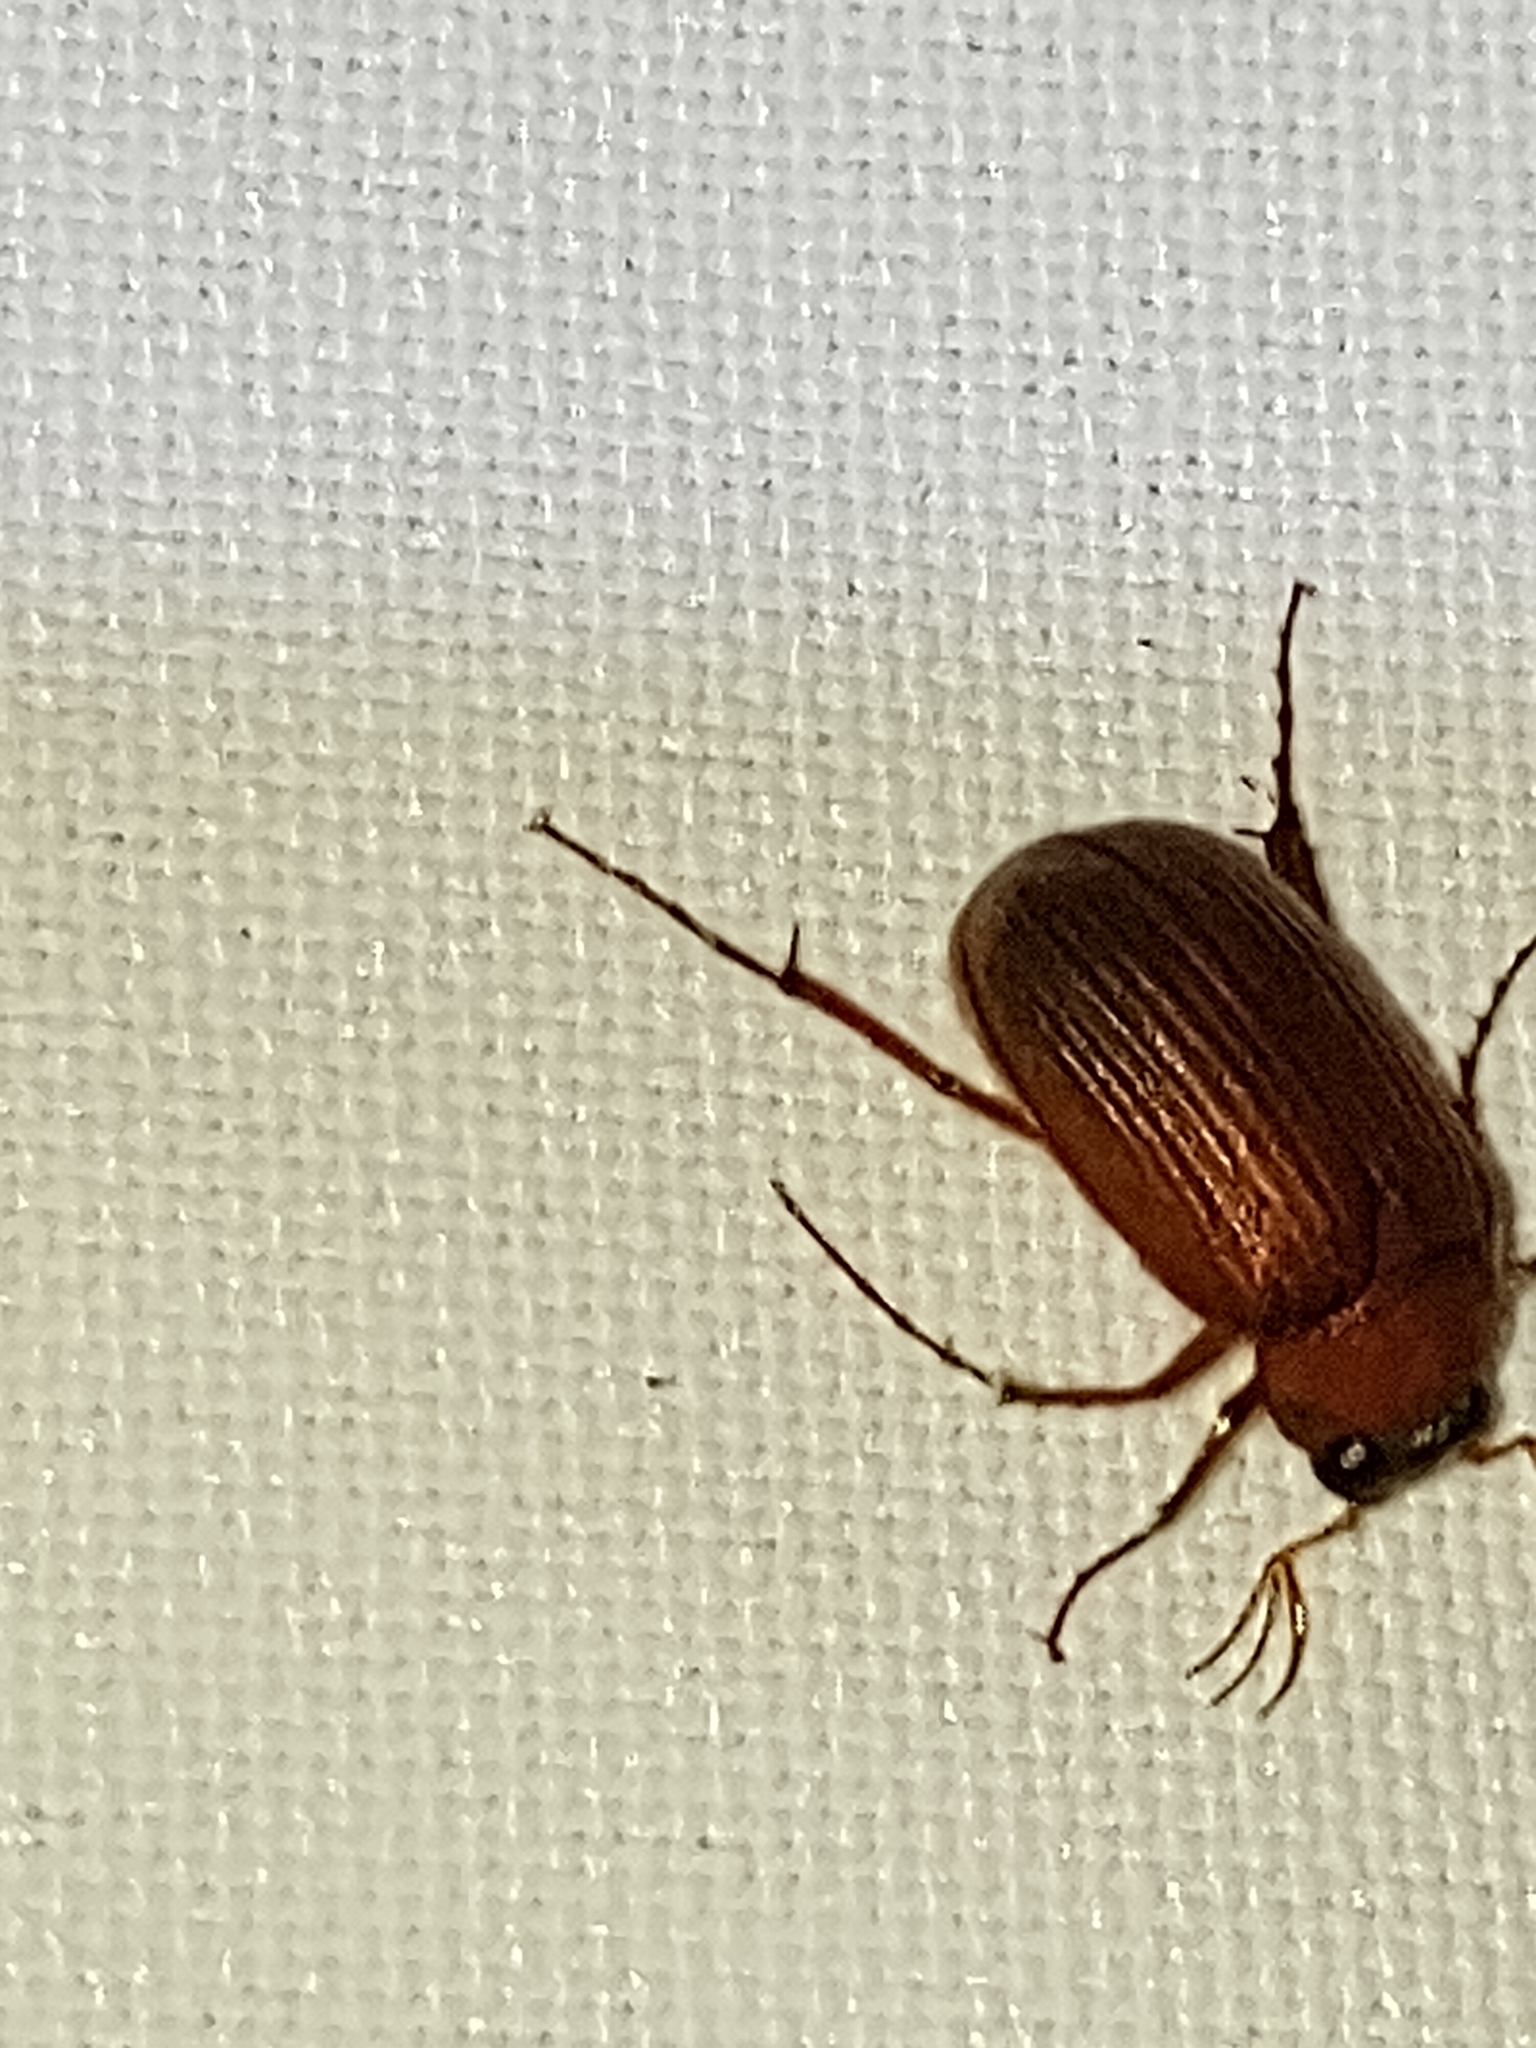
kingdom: Animalia
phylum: Arthropoda
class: Insecta
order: Coleoptera
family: Scarabaeidae
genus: Serica
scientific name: Serica brunnea
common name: Brown chafer
